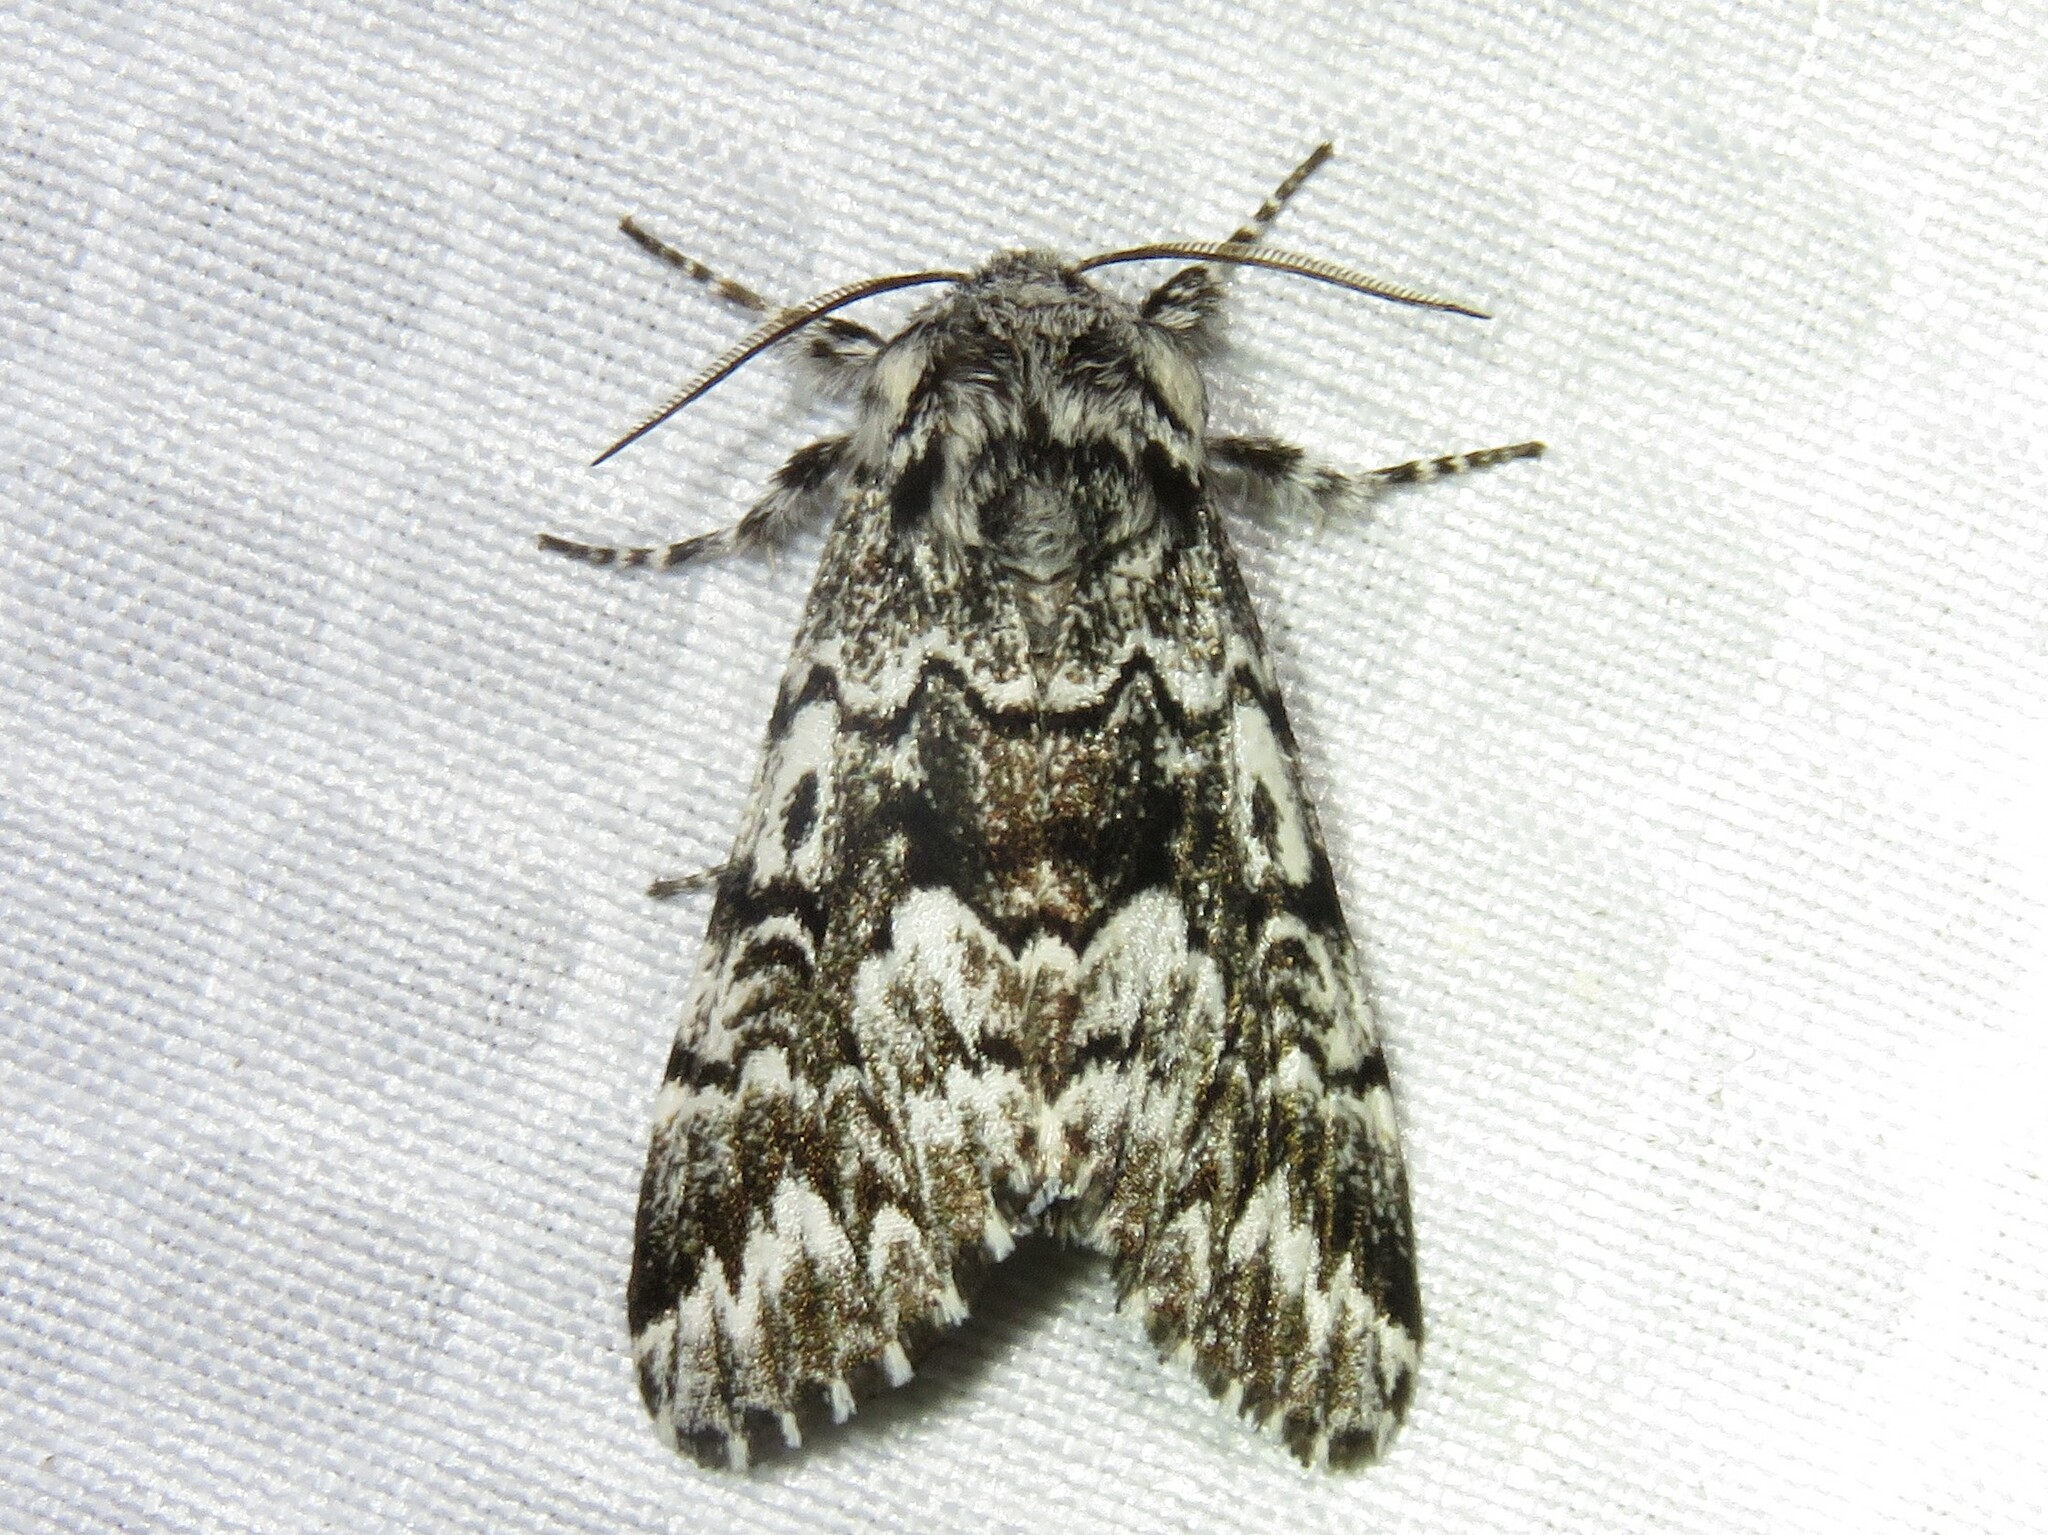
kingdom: Animalia
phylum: Arthropoda
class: Insecta
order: Lepidoptera
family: Noctuidae
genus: Panthea
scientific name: Panthea acronyctoides
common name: Black zigzag moth
